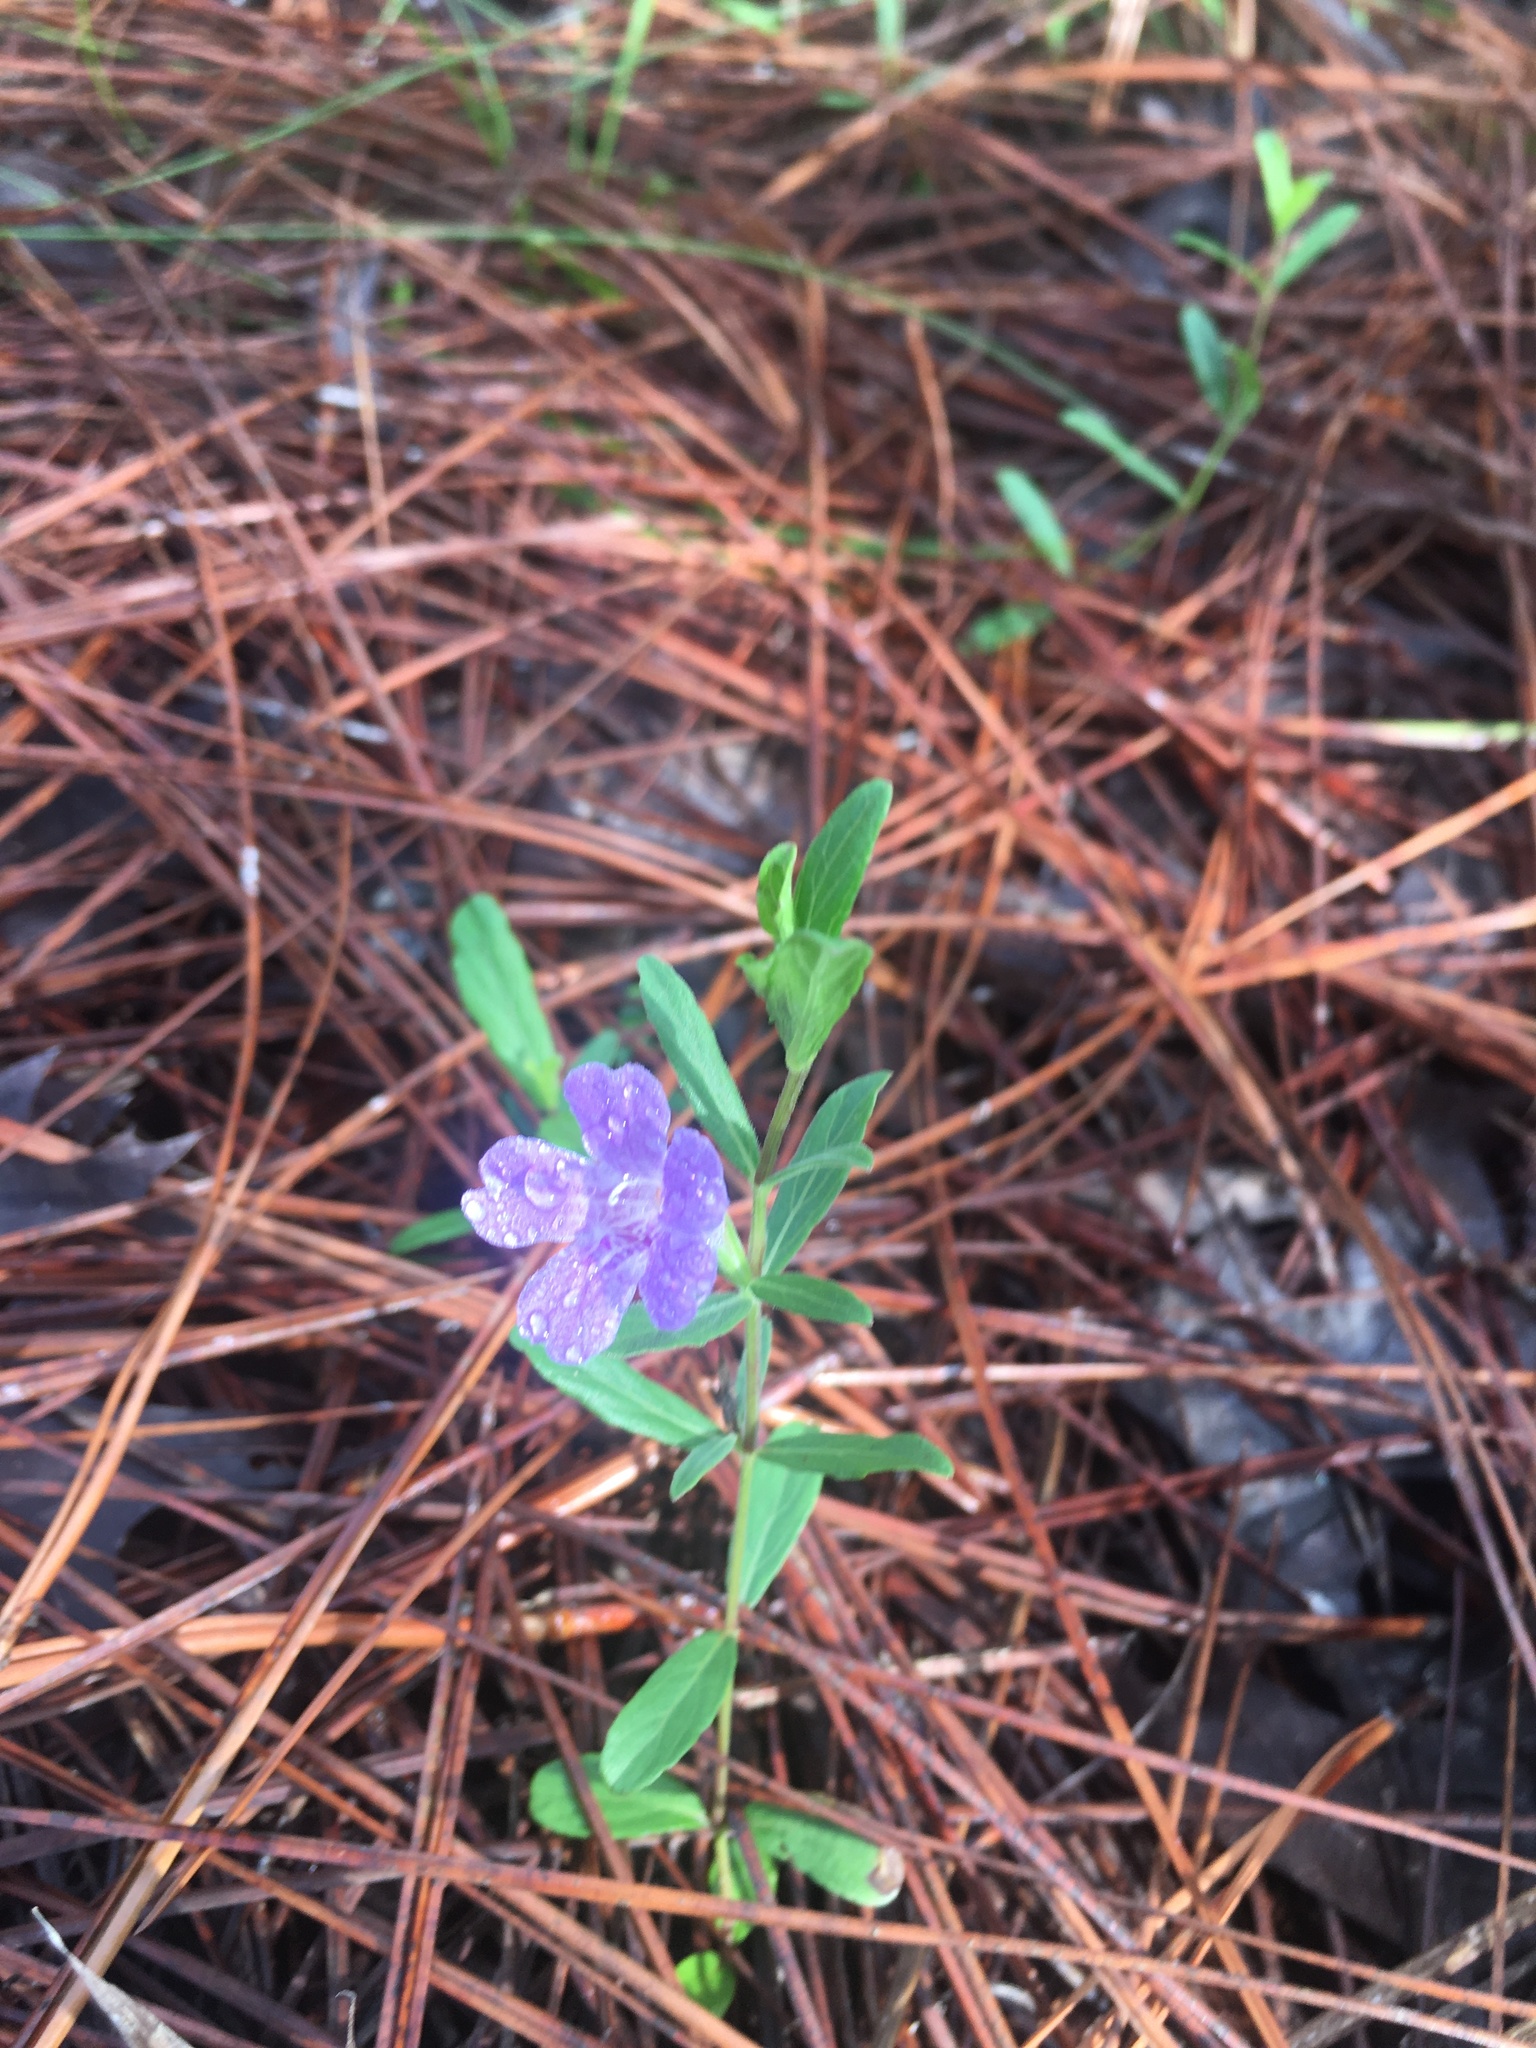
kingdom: Plantae
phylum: Tracheophyta
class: Magnoliopsida
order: Lamiales
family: Acanthaceae
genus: Dyschoriste
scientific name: Dyschoriste oblongifolia
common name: Blue twinflower
